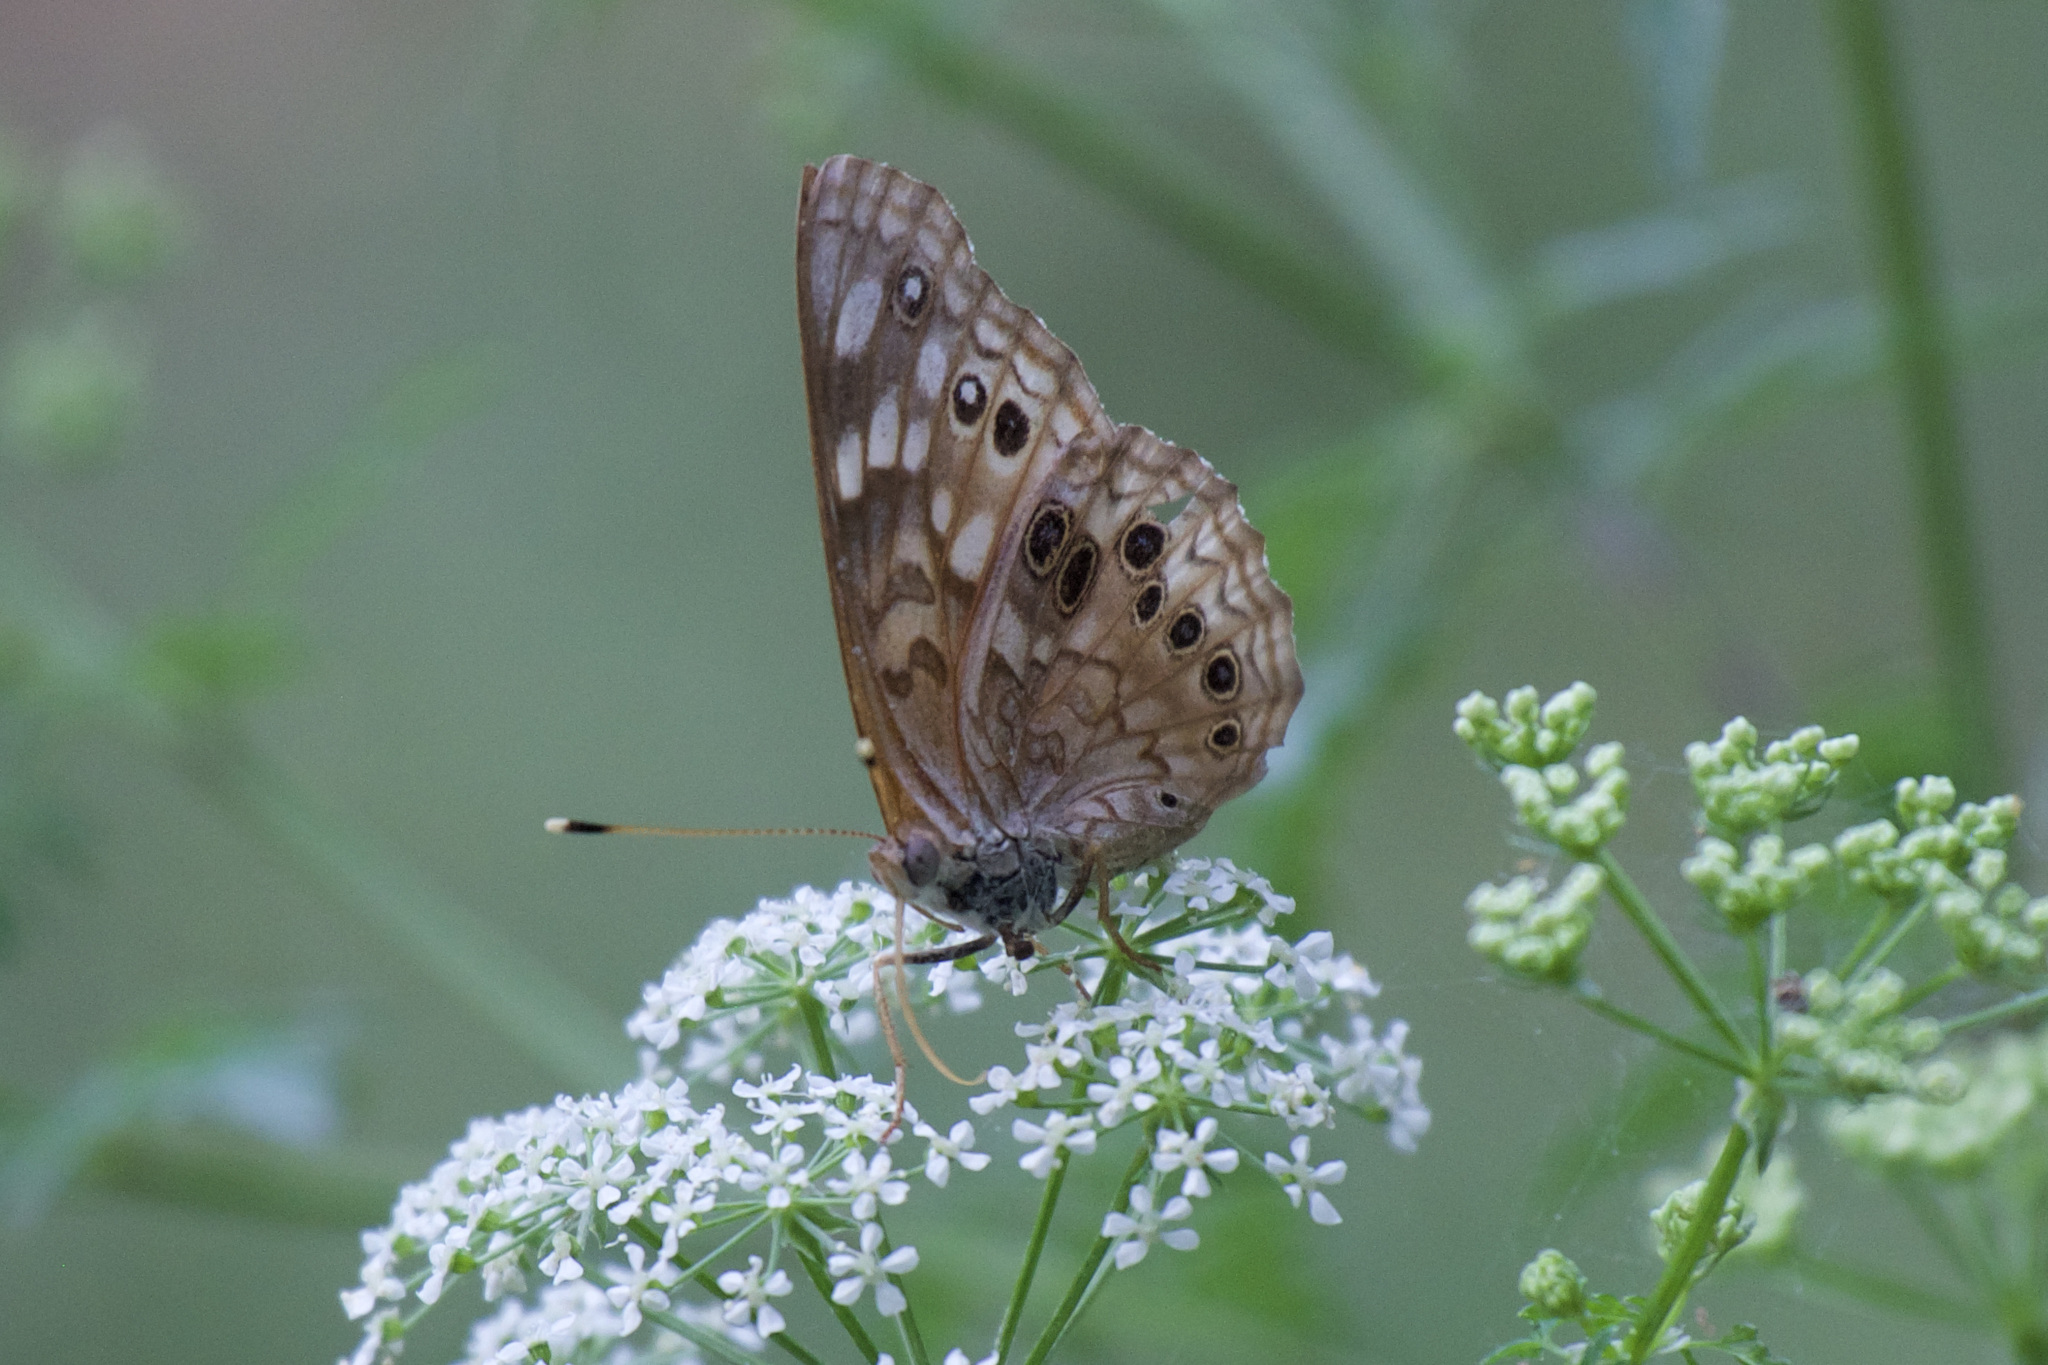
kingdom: Animalia
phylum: Arthropoda
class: Insecta
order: Lepidoptera
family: Nymphalidae
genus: Asterocampa
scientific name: Asterocampa celtis
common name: Hackberry emperor
